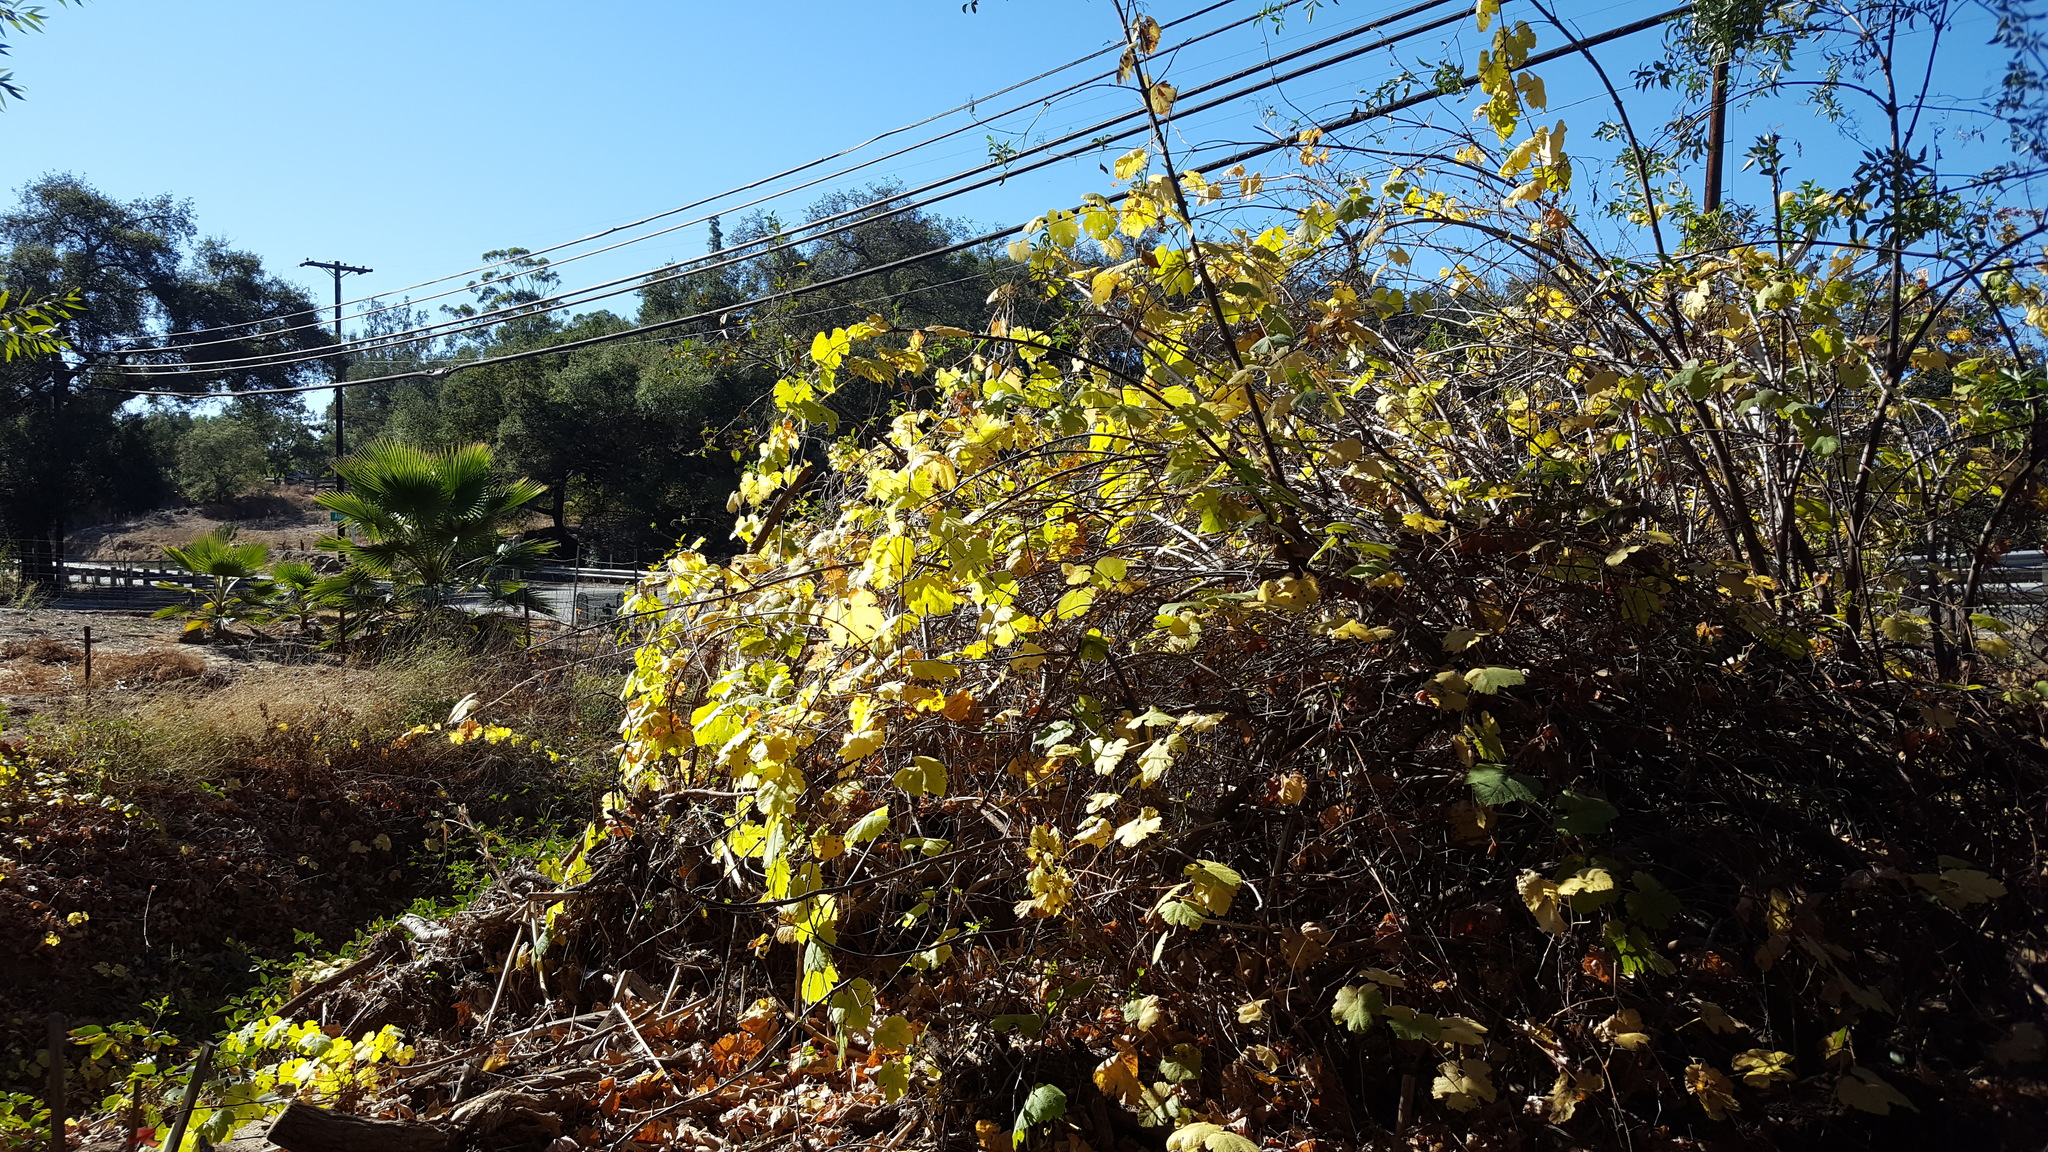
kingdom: Plantae
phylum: Tracheophyta
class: Magnoliopsida
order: Vitales
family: Vitaceae
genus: Vitis
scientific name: Vitis girdiana
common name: Desert wild grape
